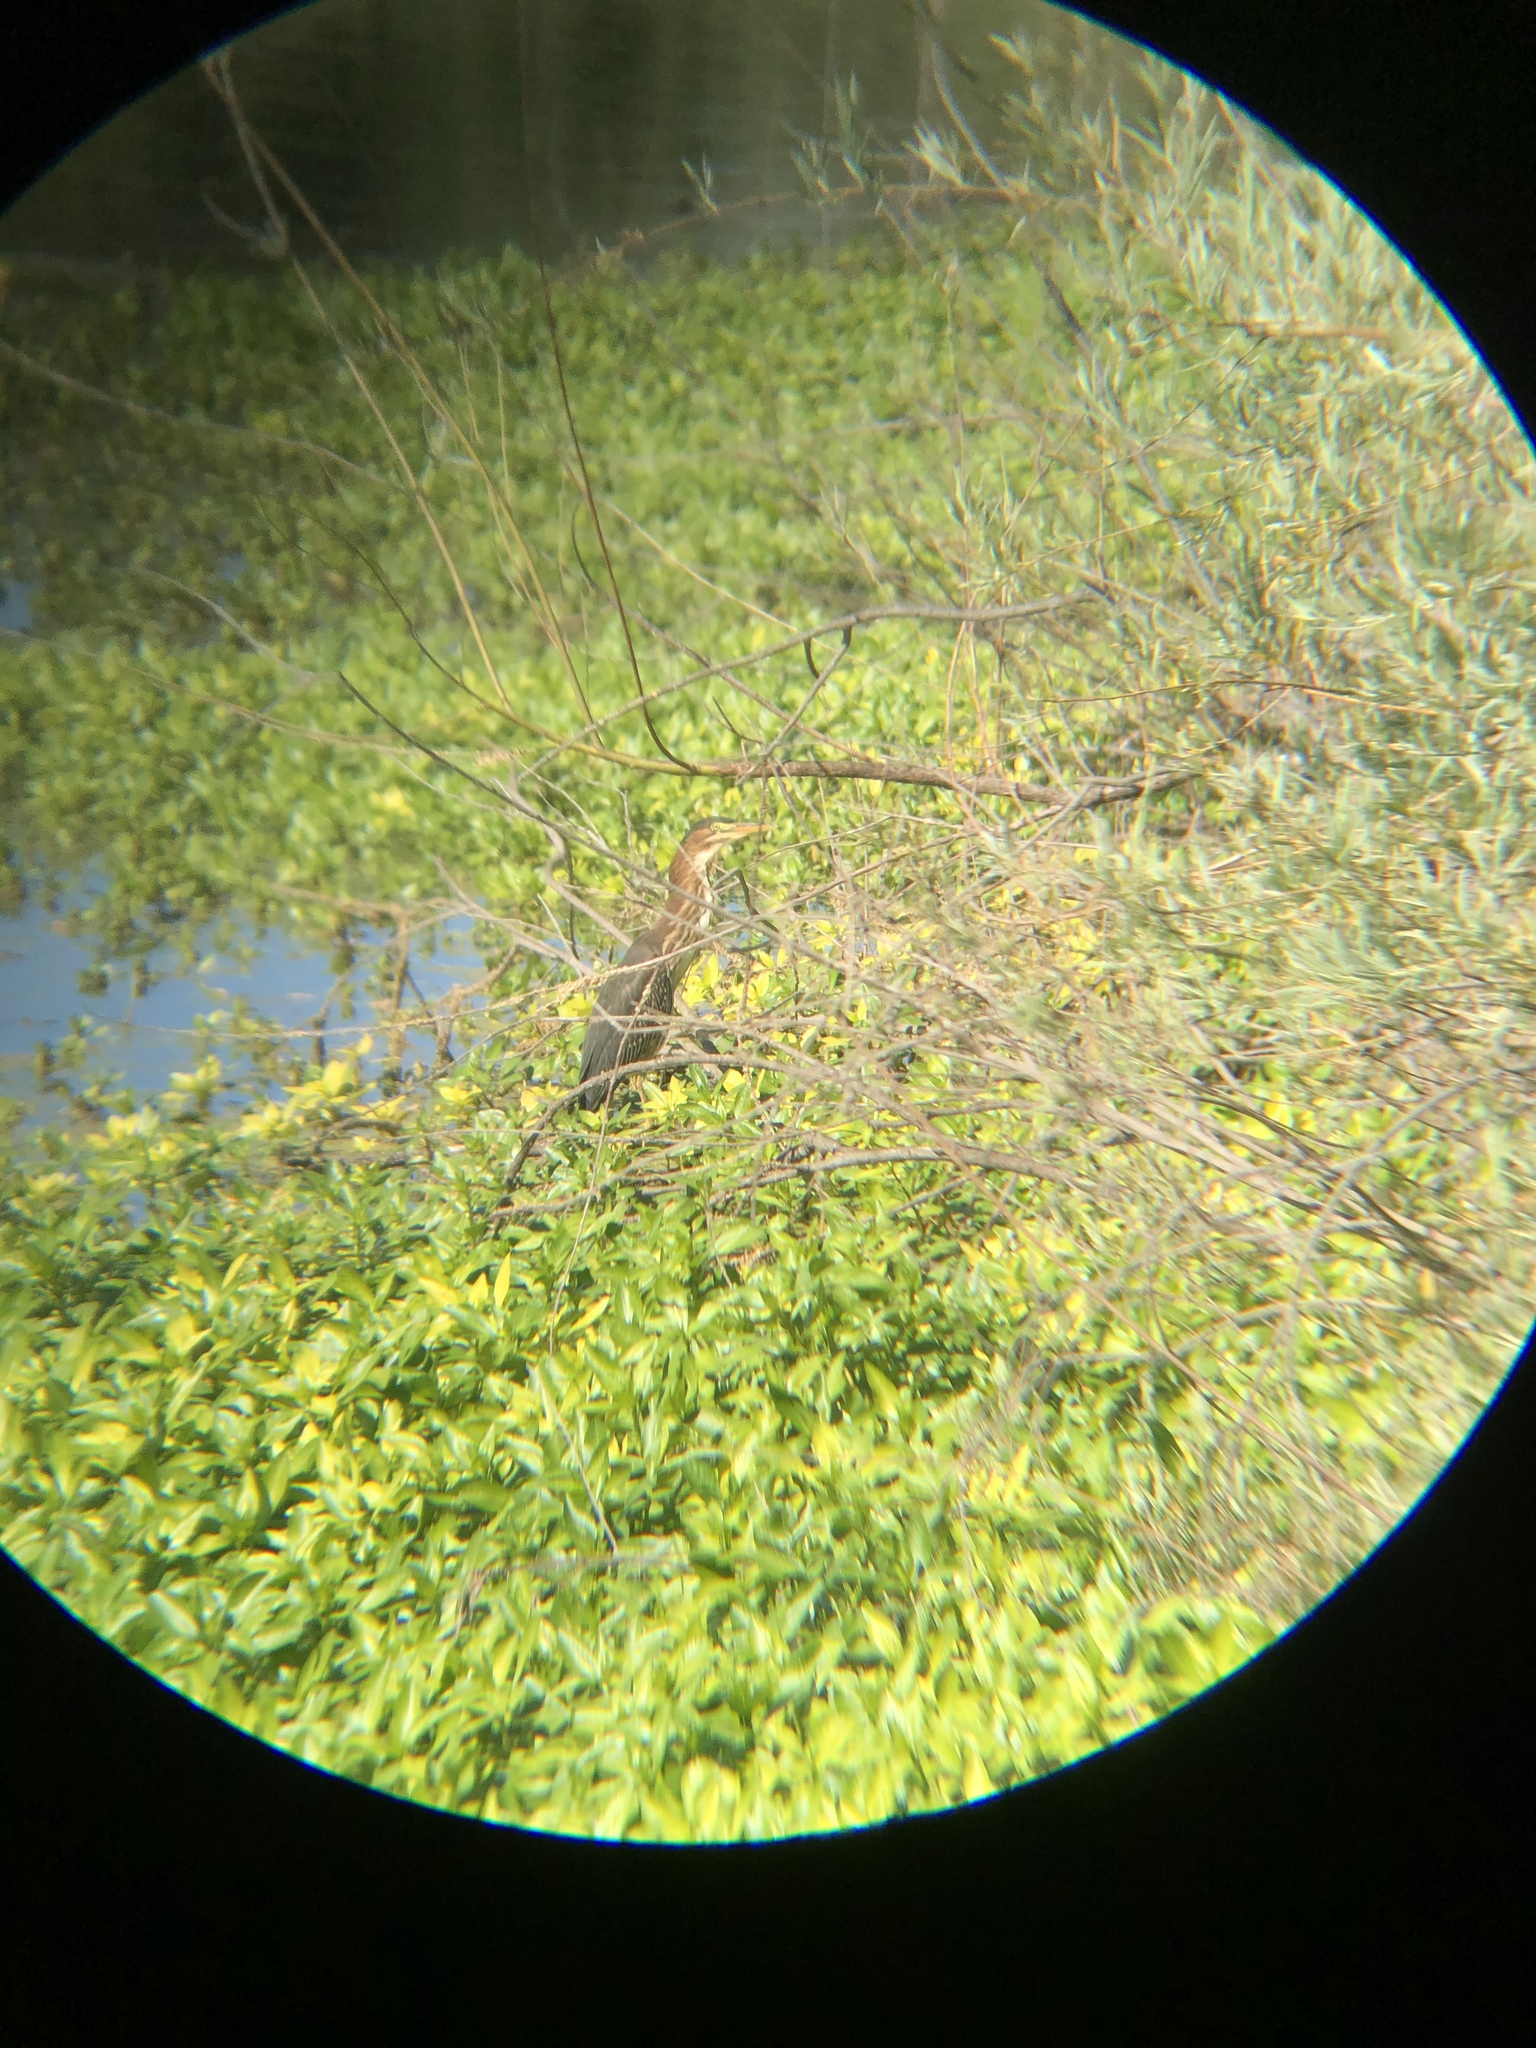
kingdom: Animalia
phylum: Chordata
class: Aves
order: Pelecaniformes
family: Ardeidae
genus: Butorides
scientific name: Butorides virescens
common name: Green heron
